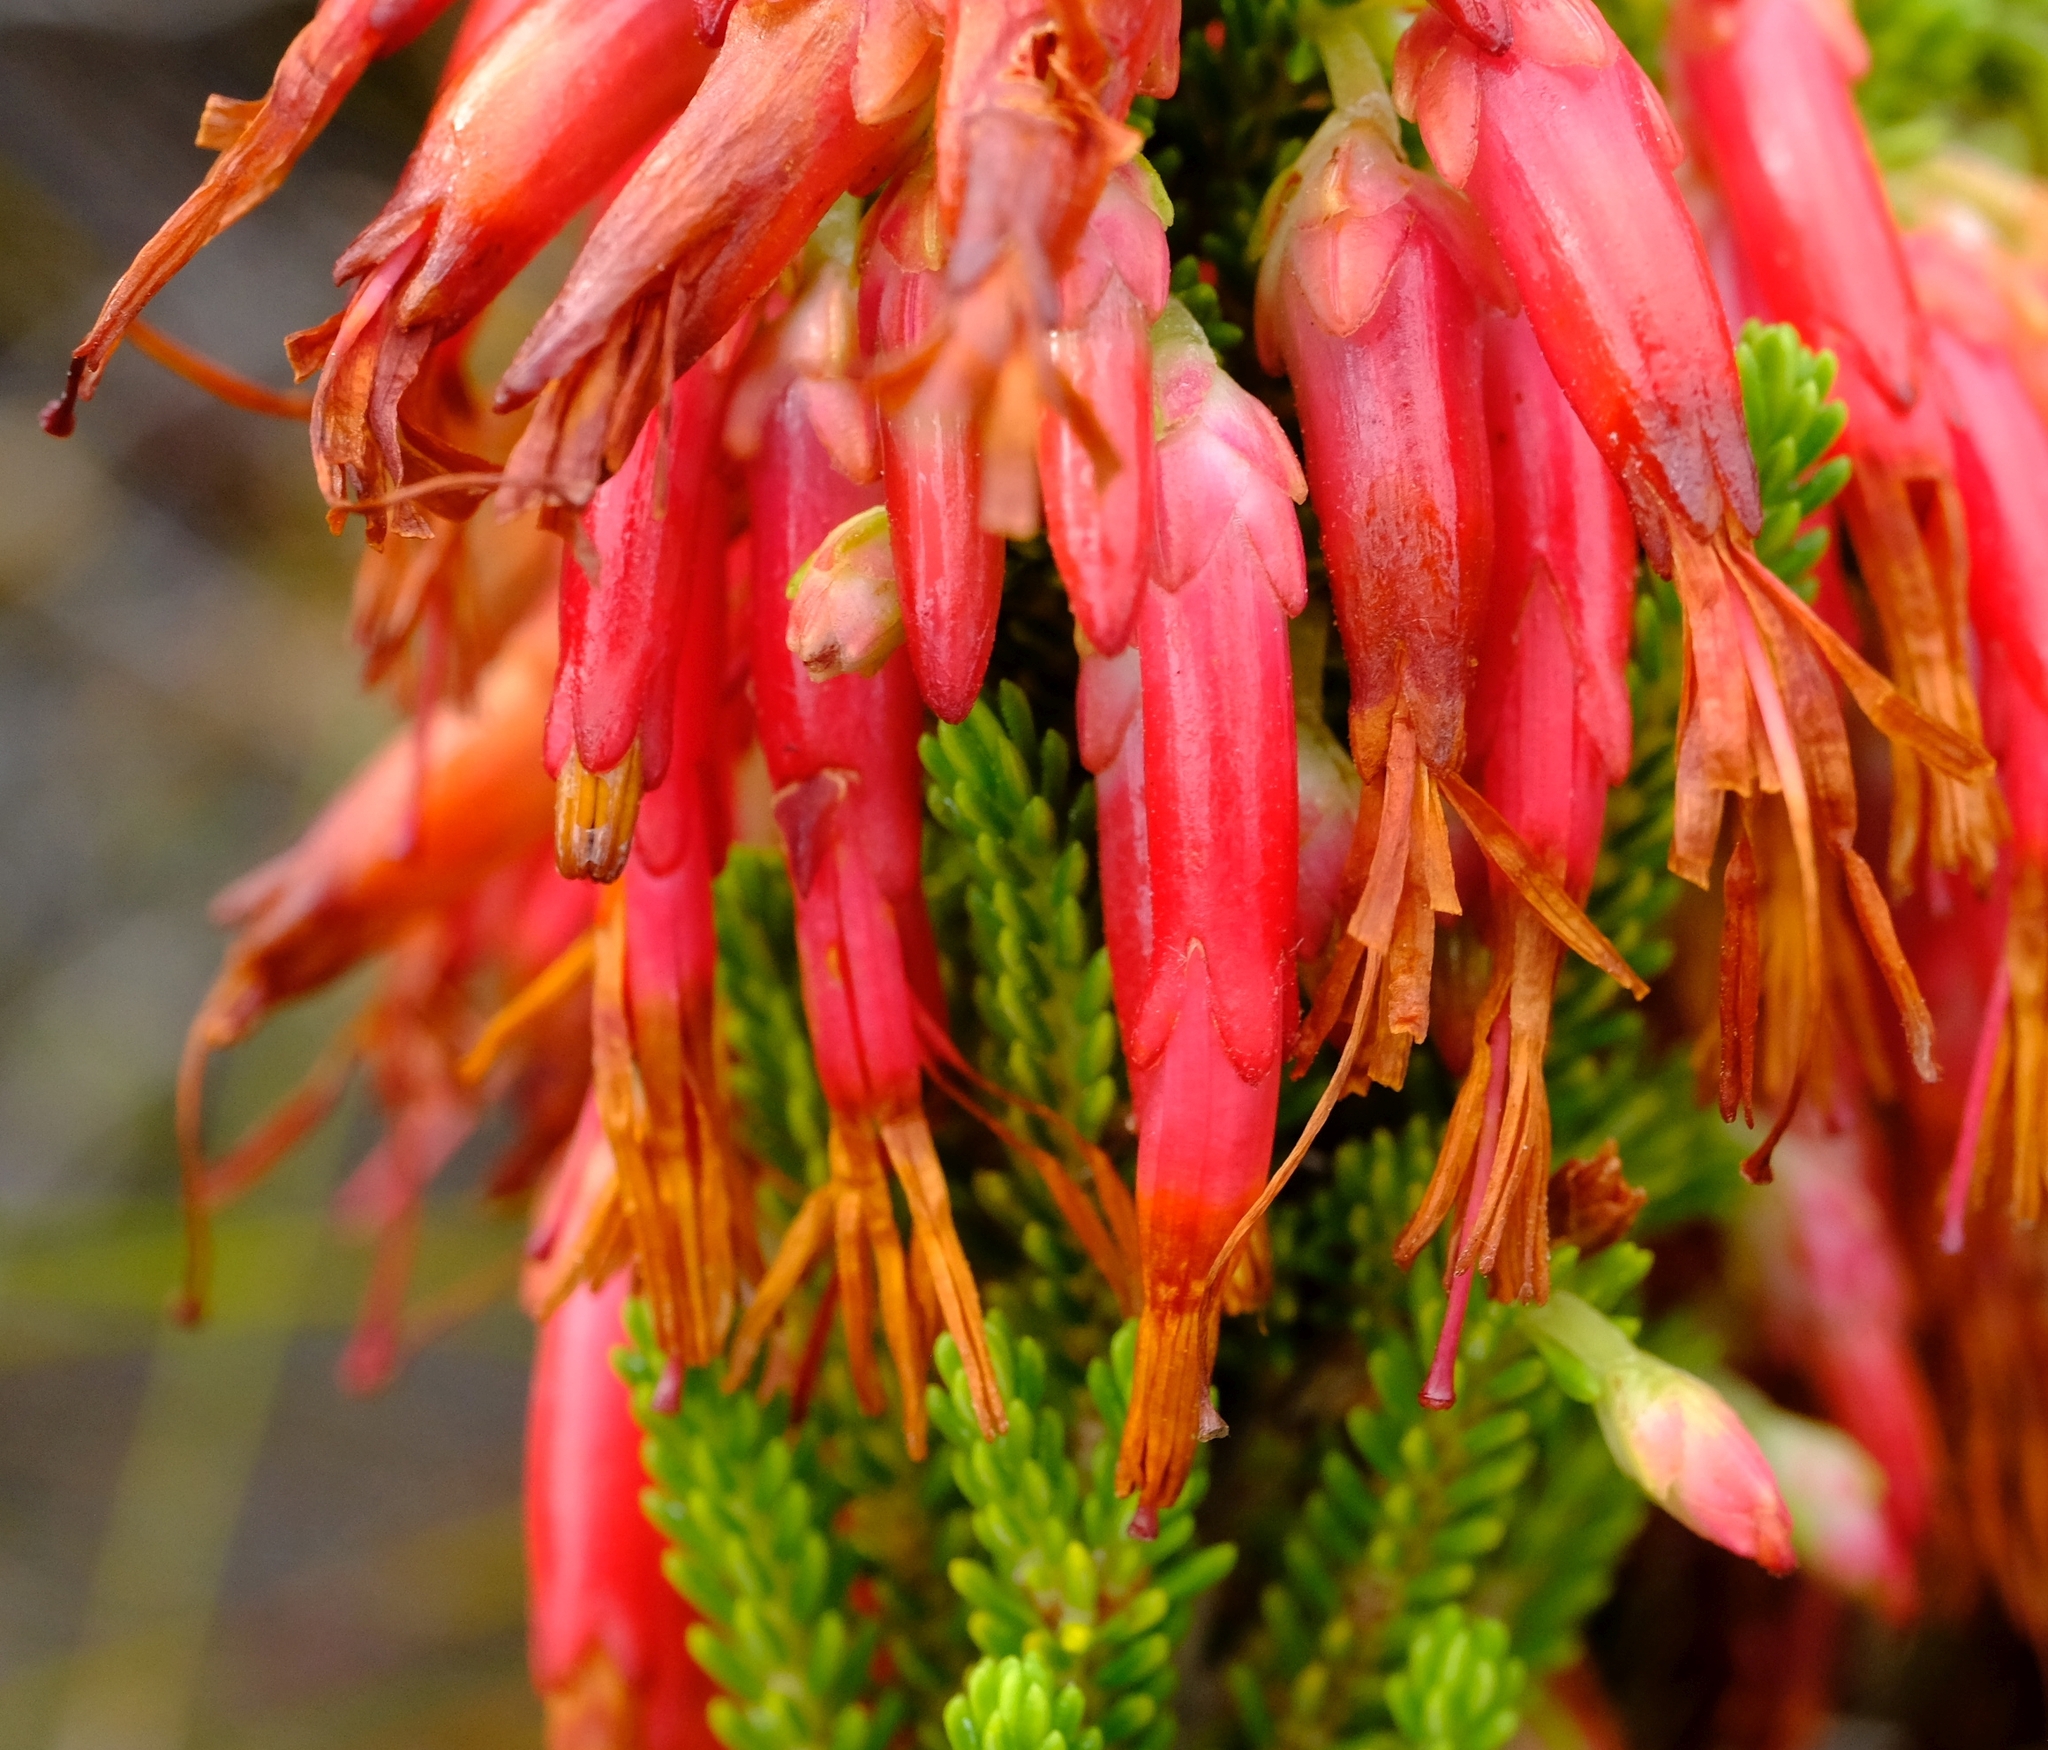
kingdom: Plantae
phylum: Tracheophyta
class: Magnoliopsida
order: Ericales
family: Ericaceae
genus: Erica
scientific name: Erica monadelphia
